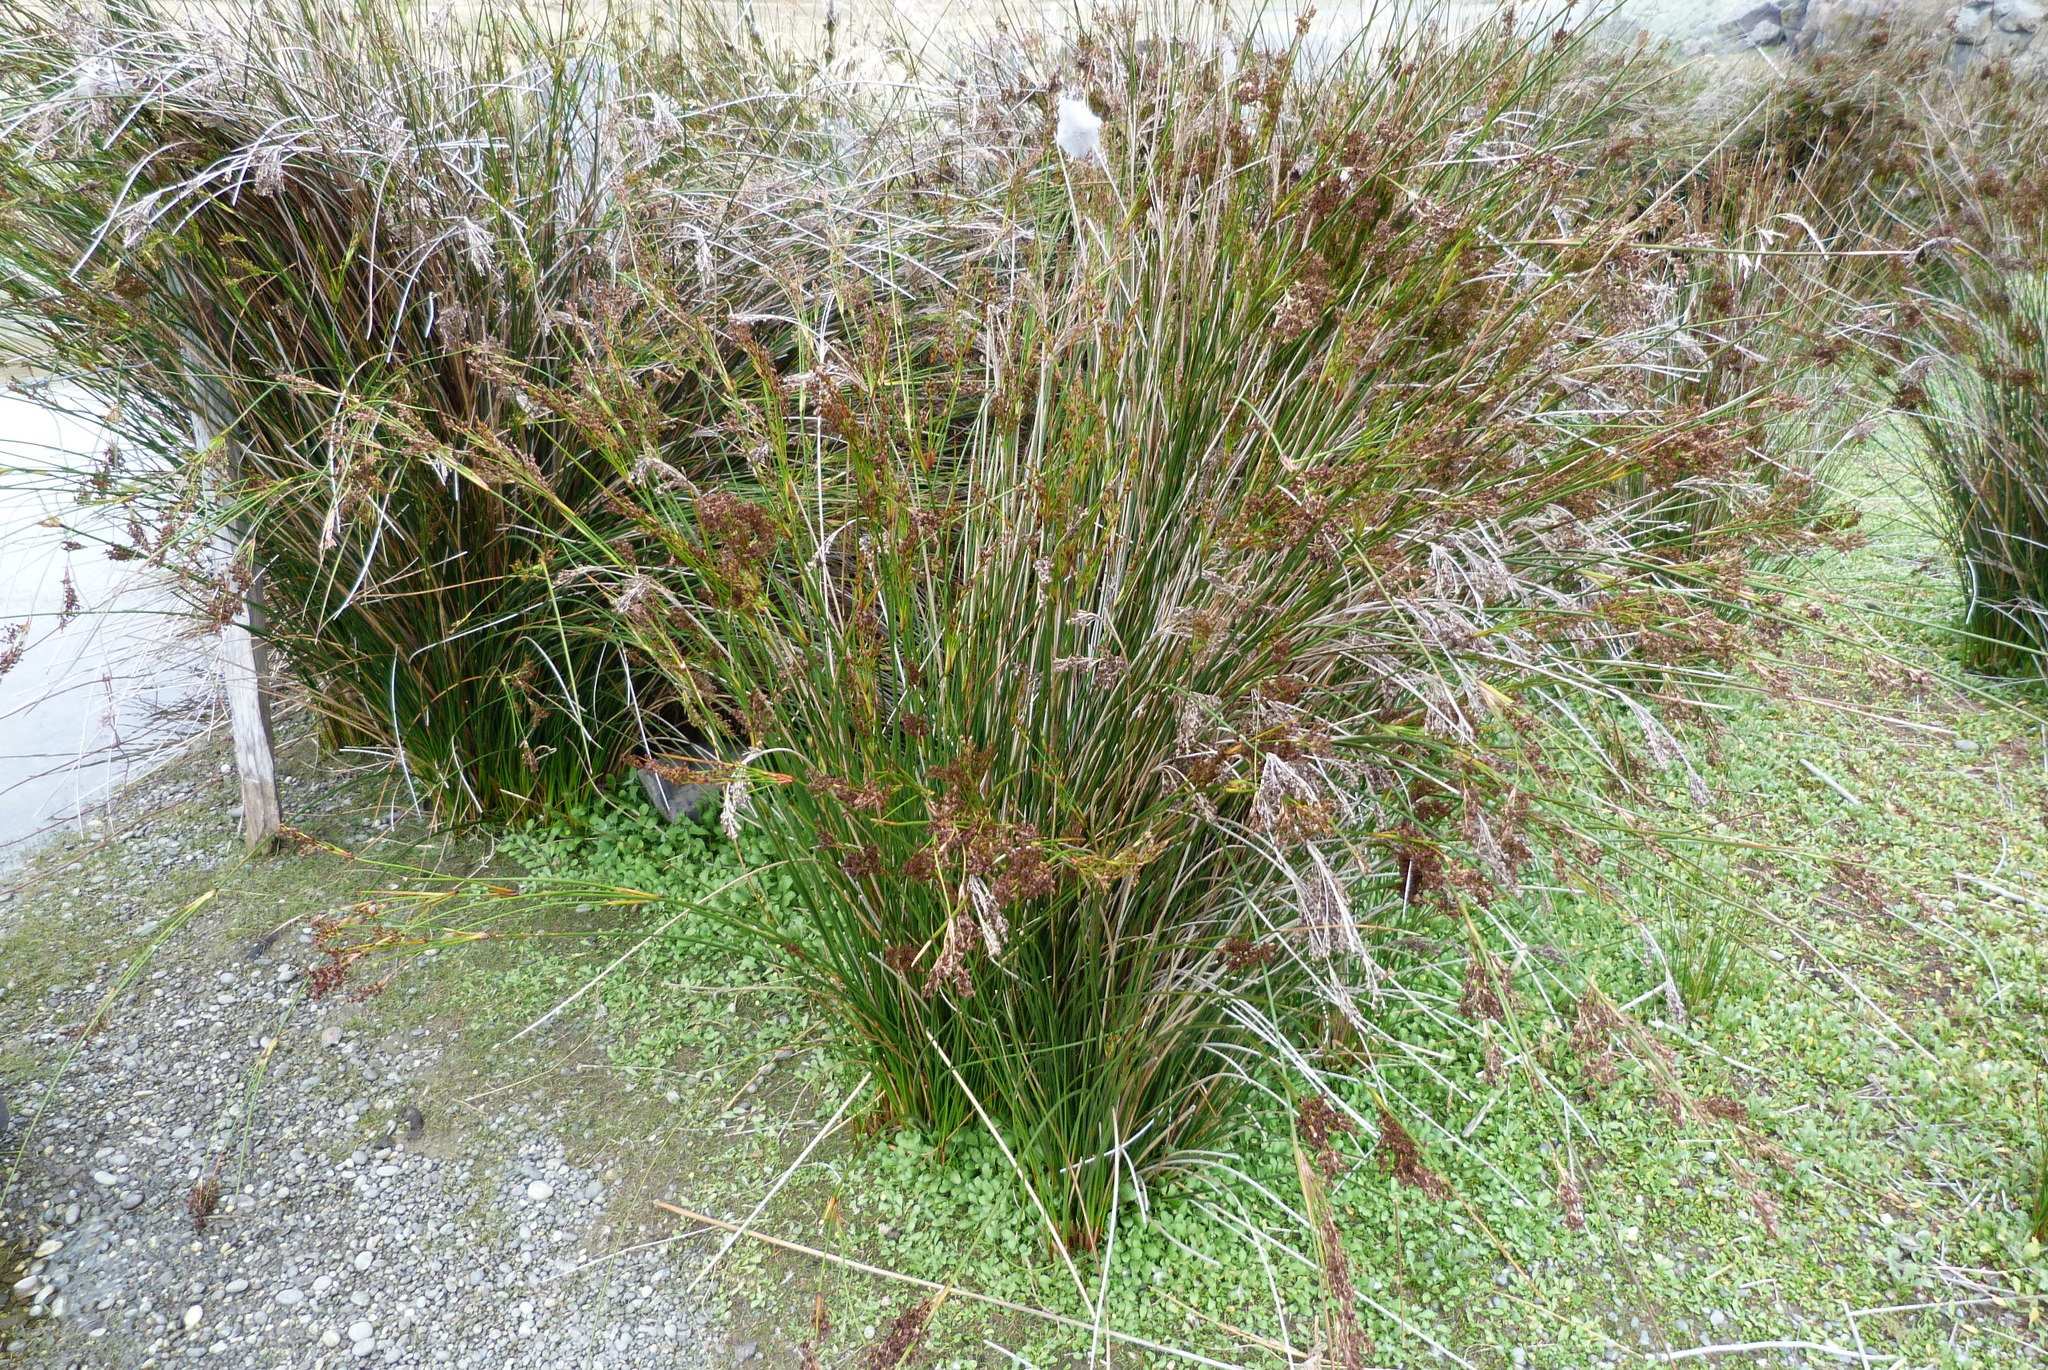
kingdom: Plantae
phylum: Tracheophyta
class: Liliopsida
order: Poales
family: Juncaceae
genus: Juncus
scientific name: Juncus kraussii
